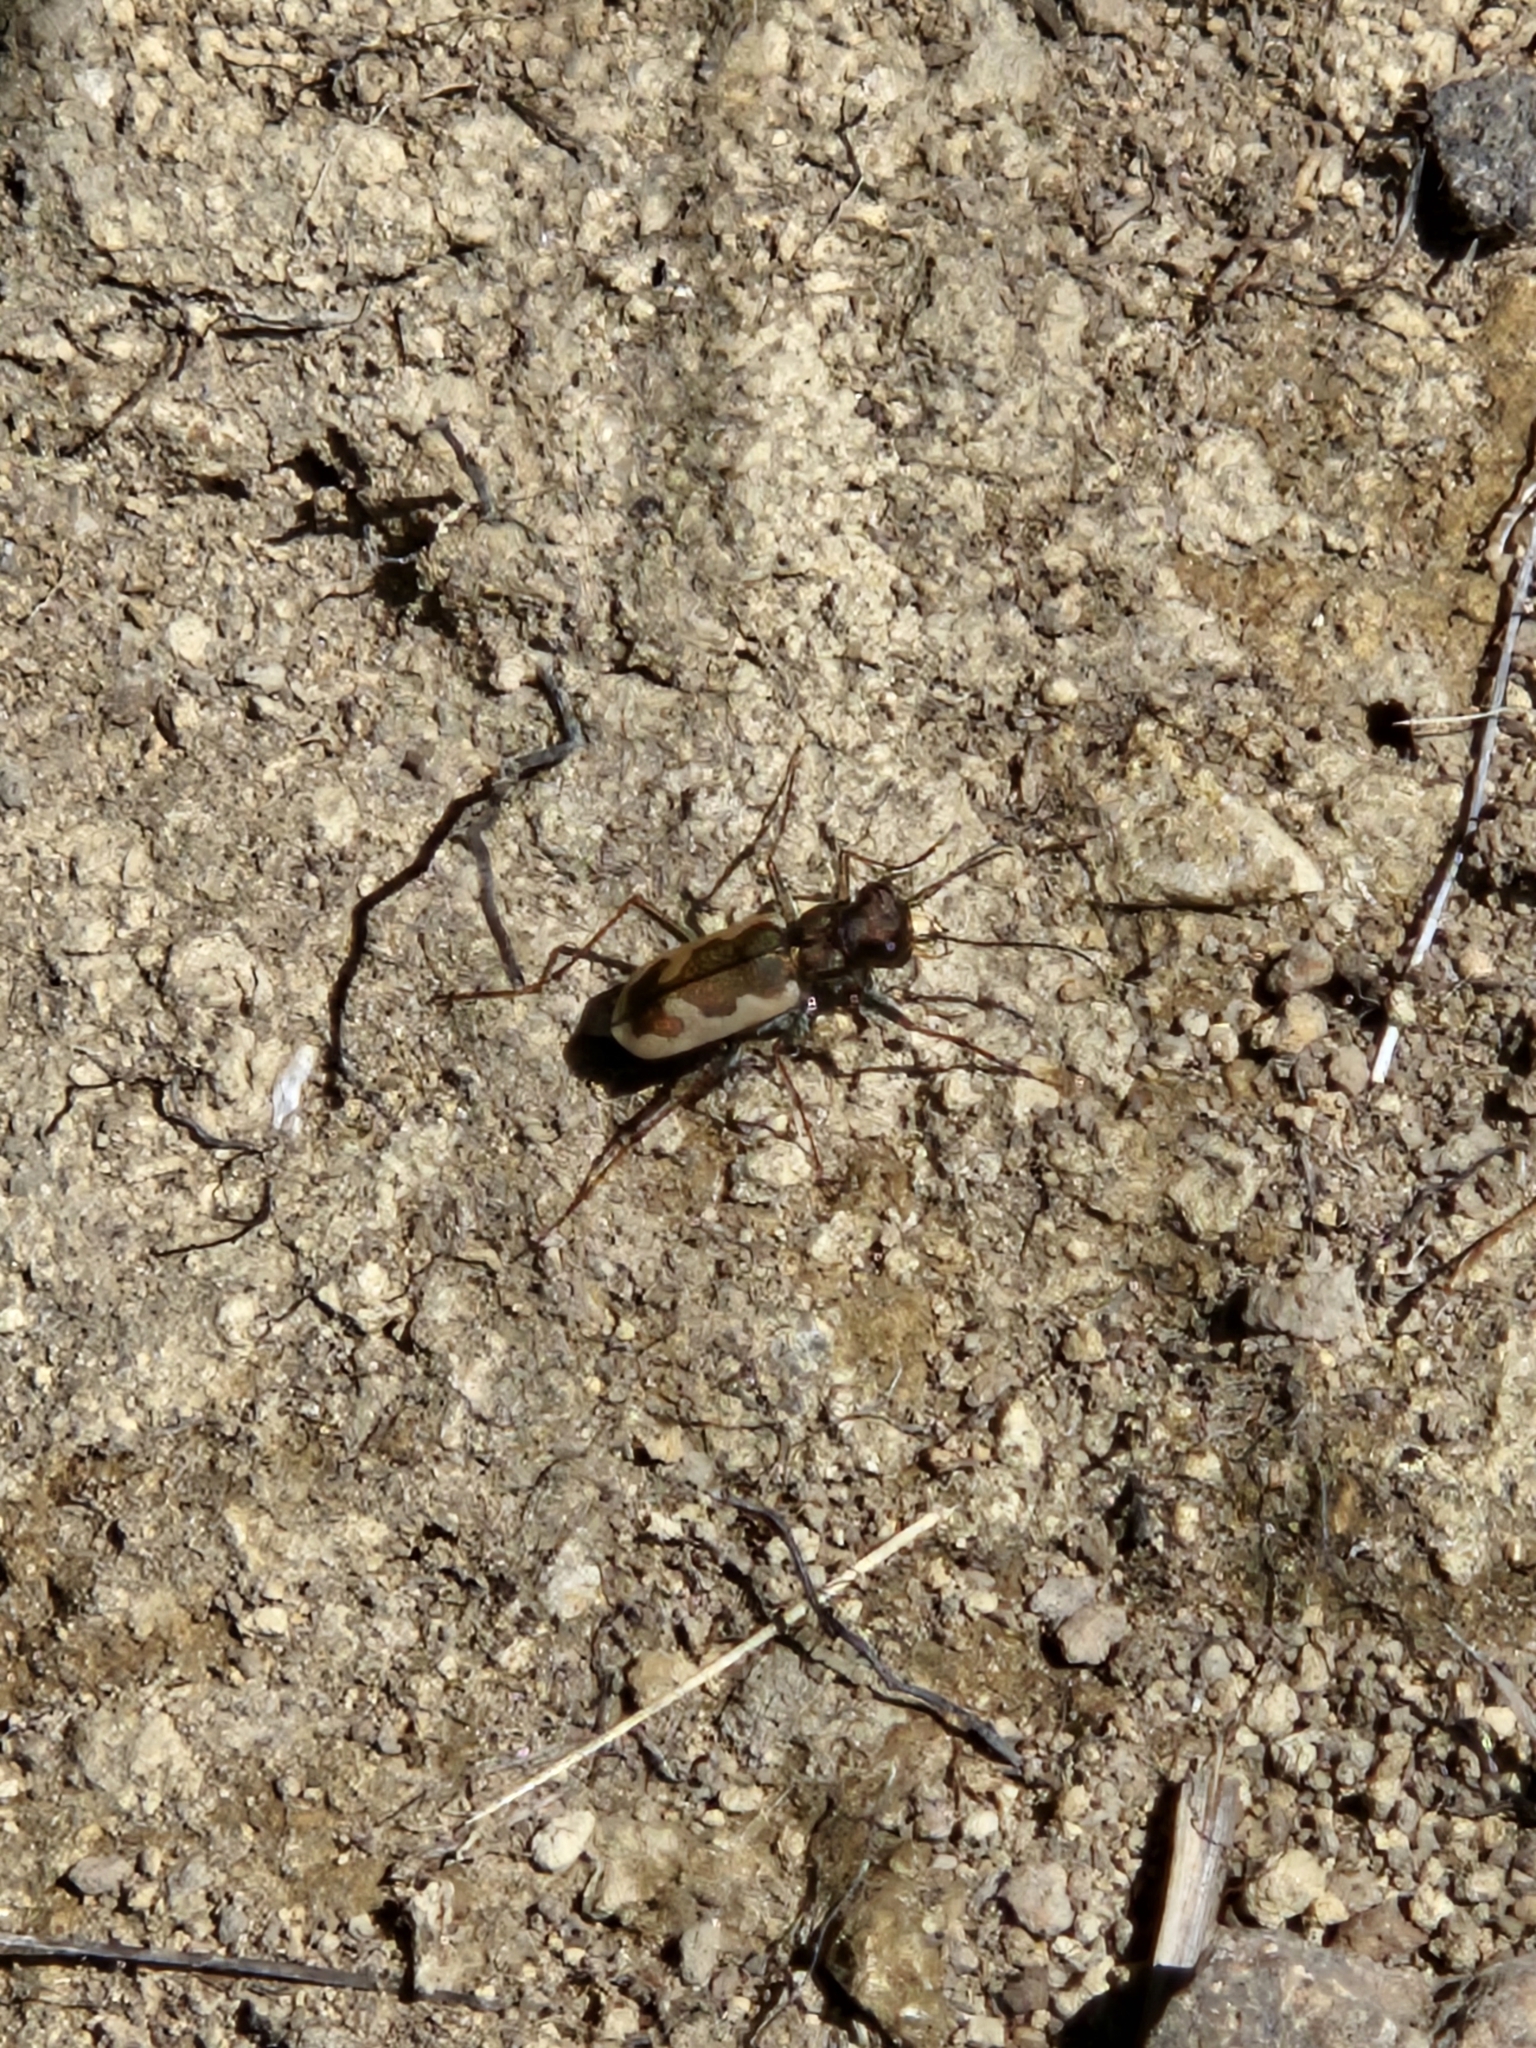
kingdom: Animalia
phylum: Arthropoda
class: Insecta
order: Coleoptera
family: Carabidae
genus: Neocicindela
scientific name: Neocicindela latecincta
